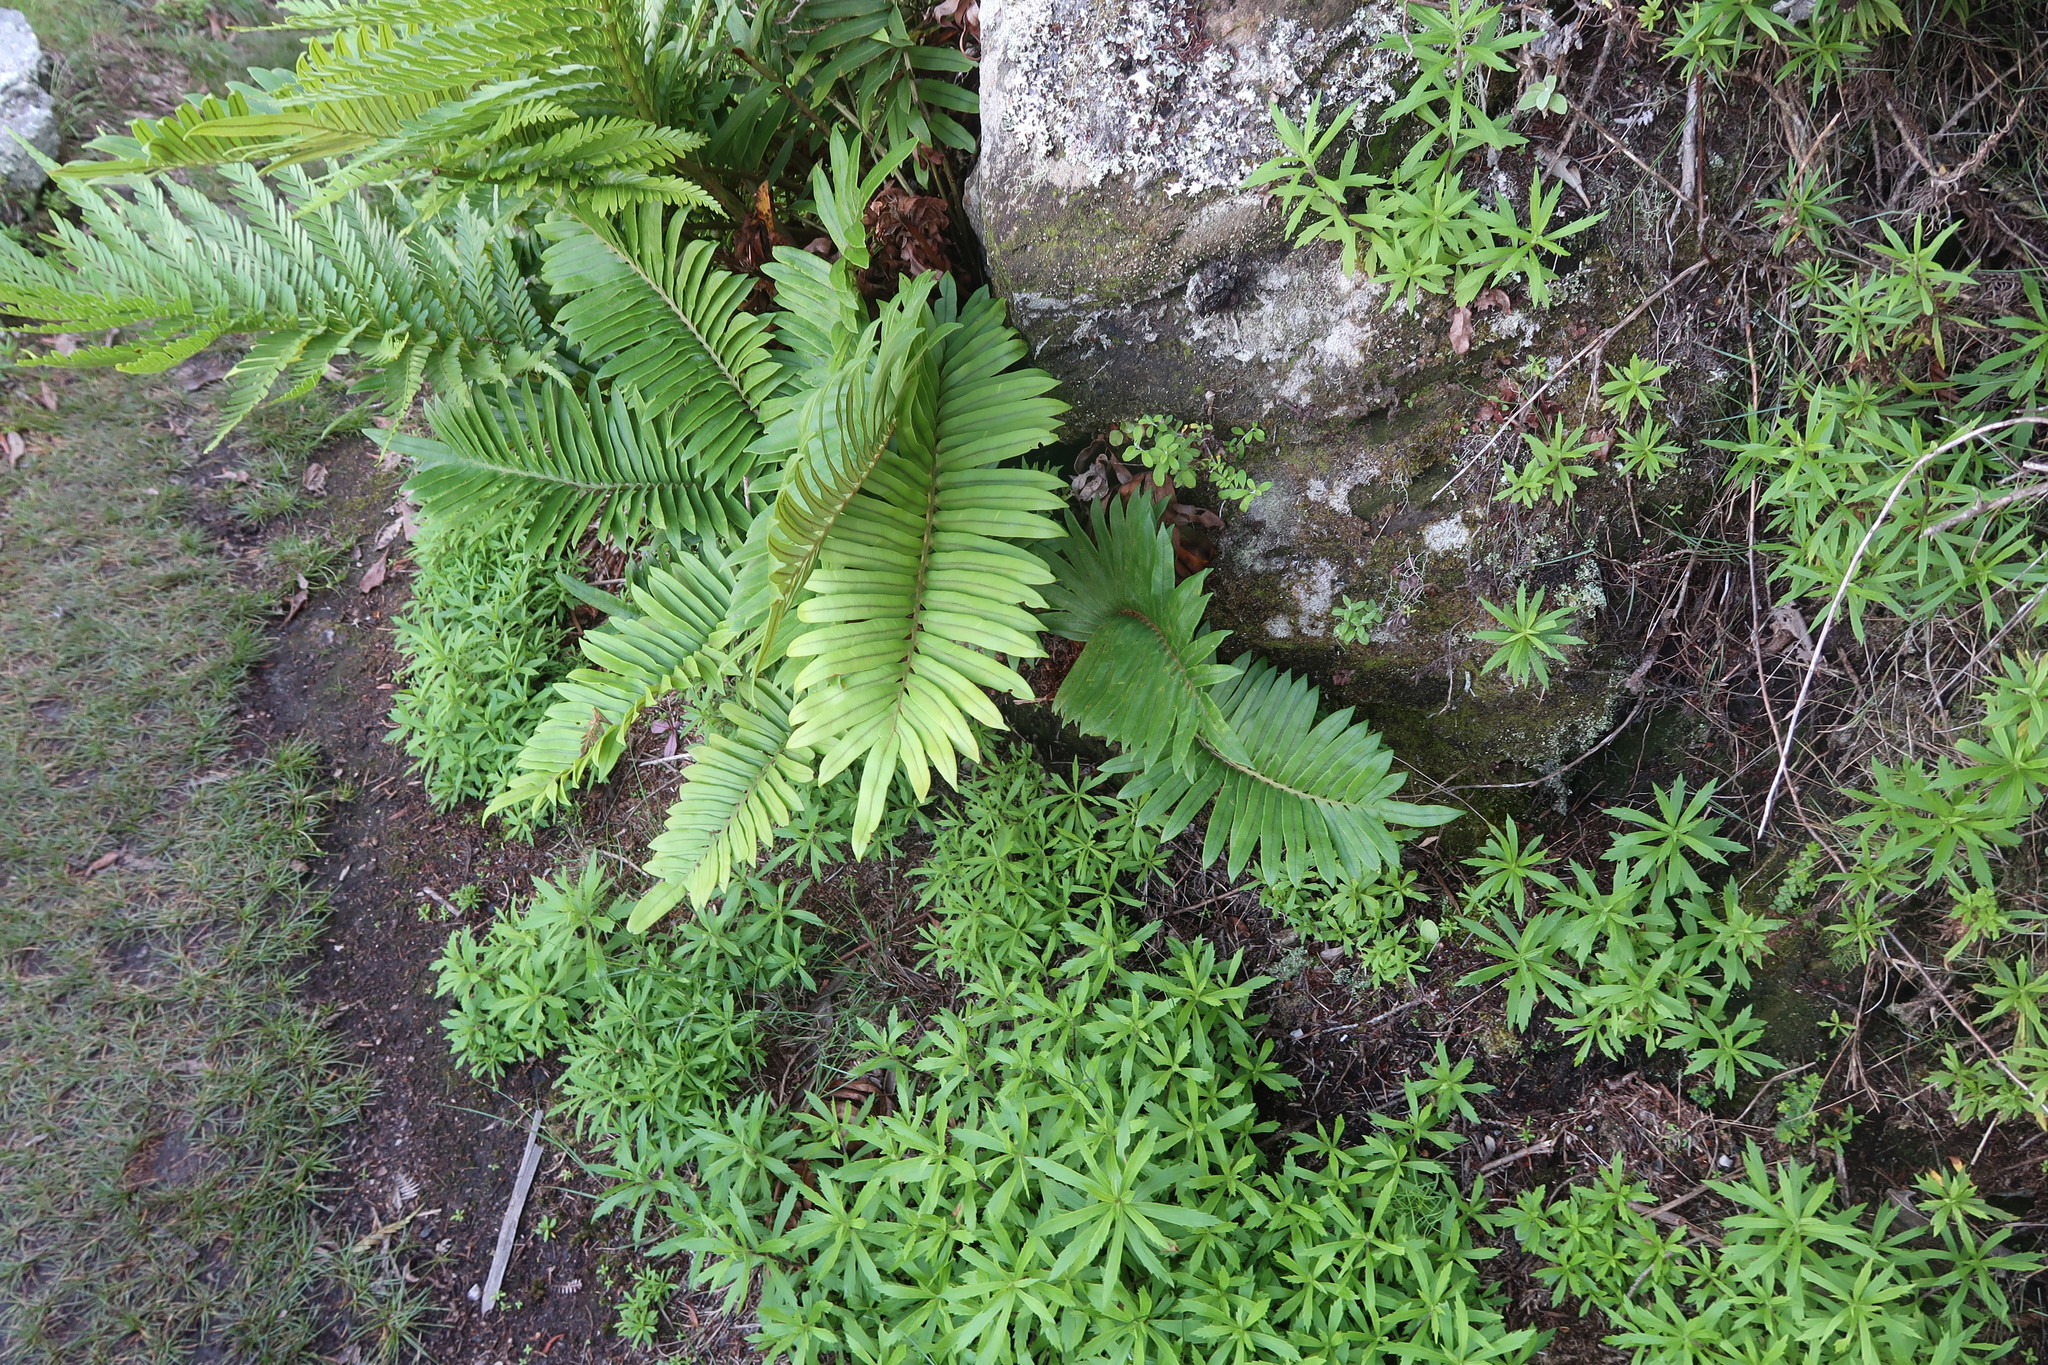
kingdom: Plantae
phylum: Tracheophyta
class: Magnoliopsida
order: Asterales
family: Asteraceae
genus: Osmitopsis
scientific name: Osmitopsis osmitoides
